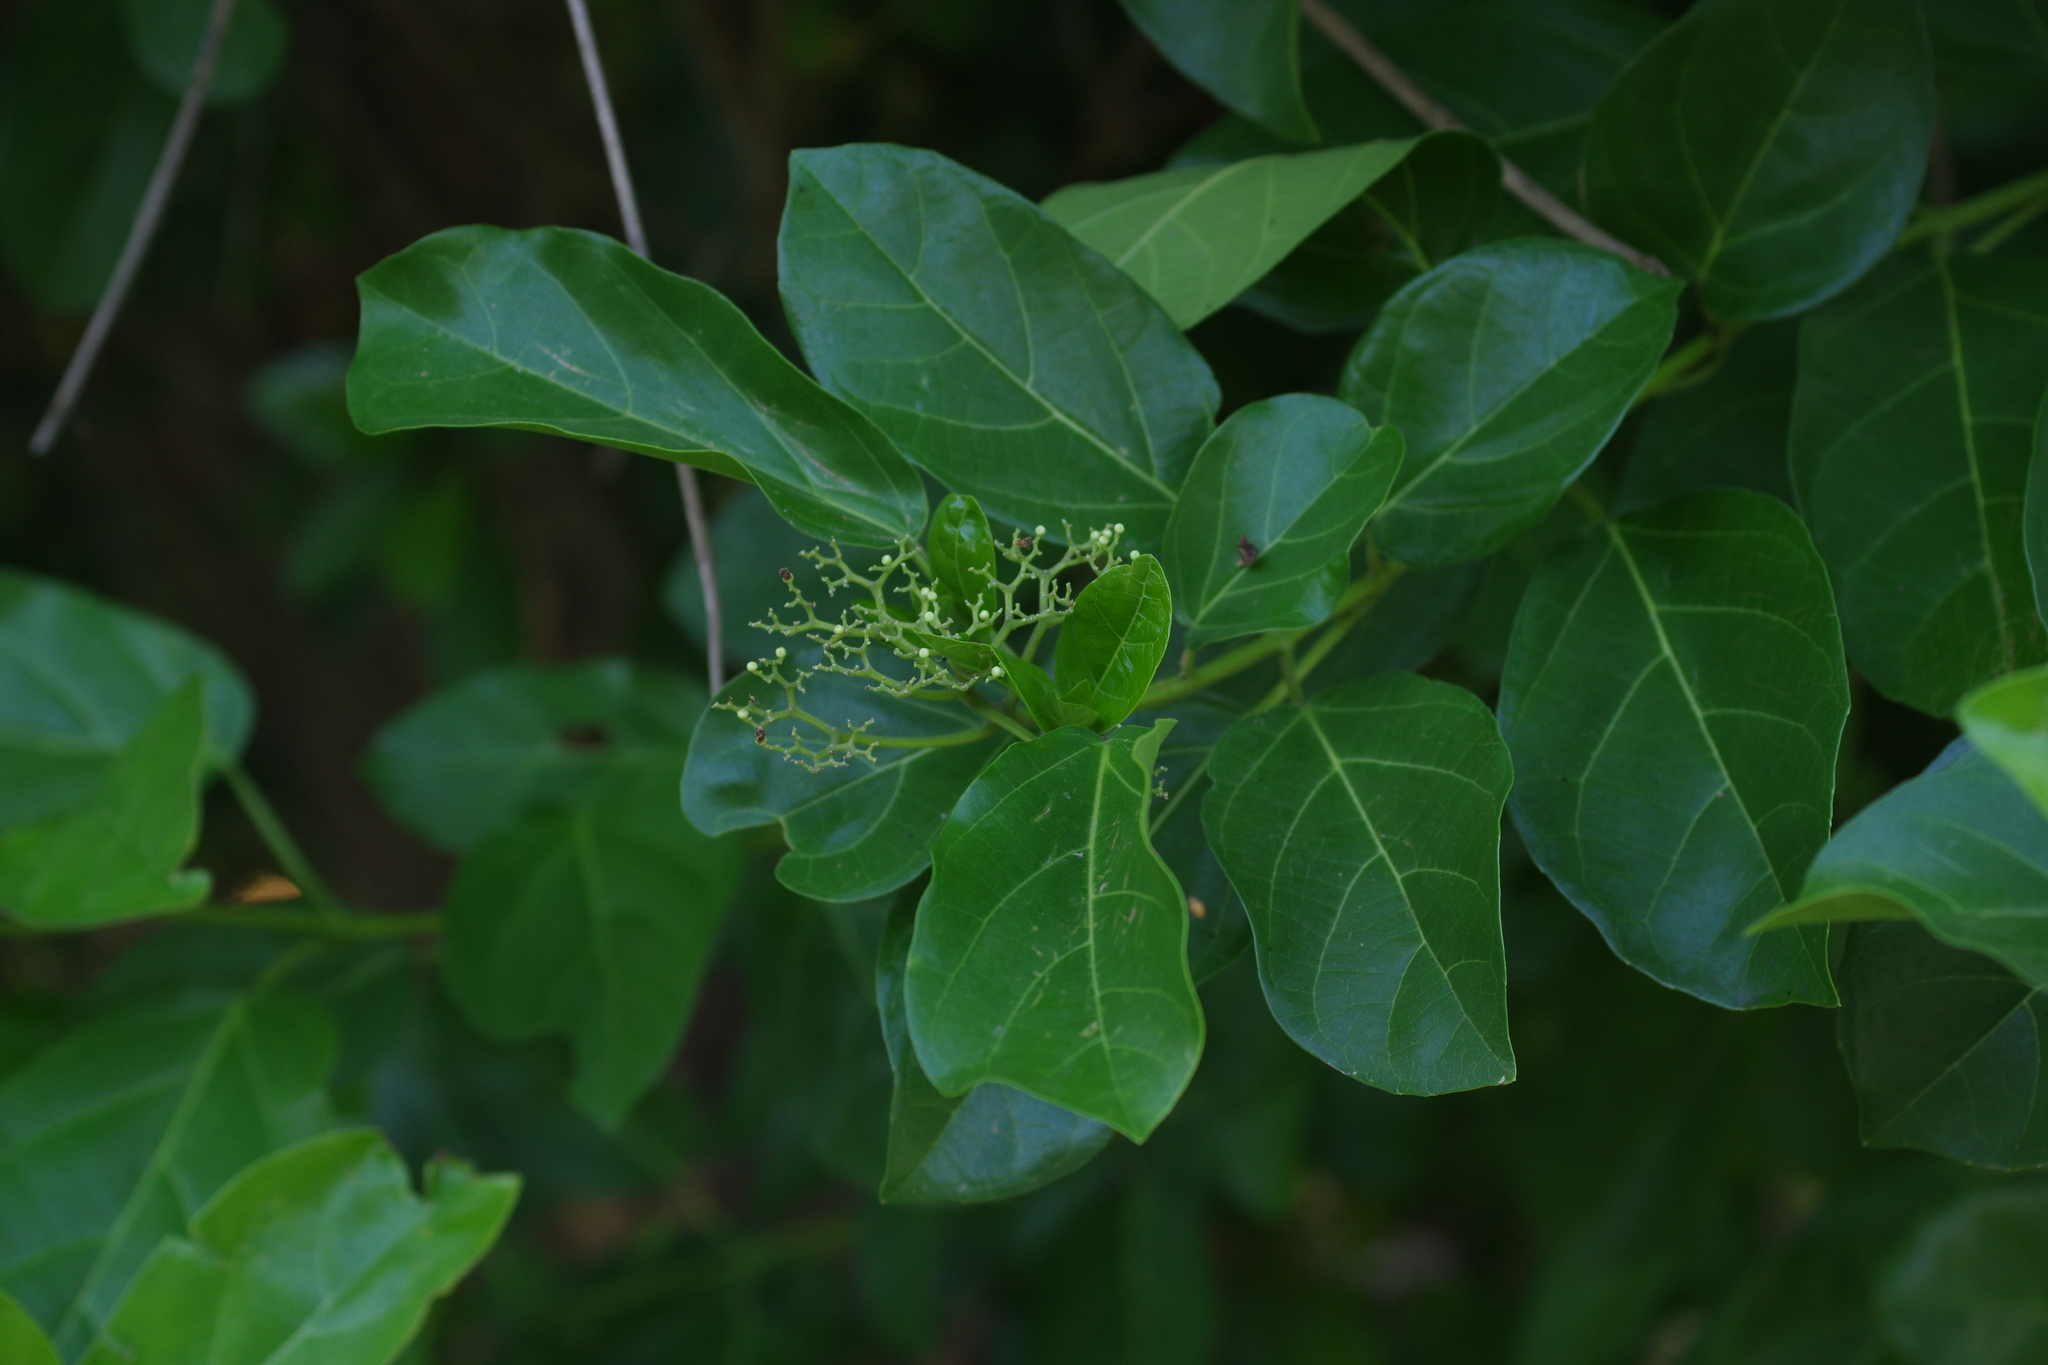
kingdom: Plantae
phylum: Tracheophyta
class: Magnoliopsida
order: Lamiales
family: Lamiaceae
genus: Premna
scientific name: Premna serratifolia
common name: Bastard guelder
